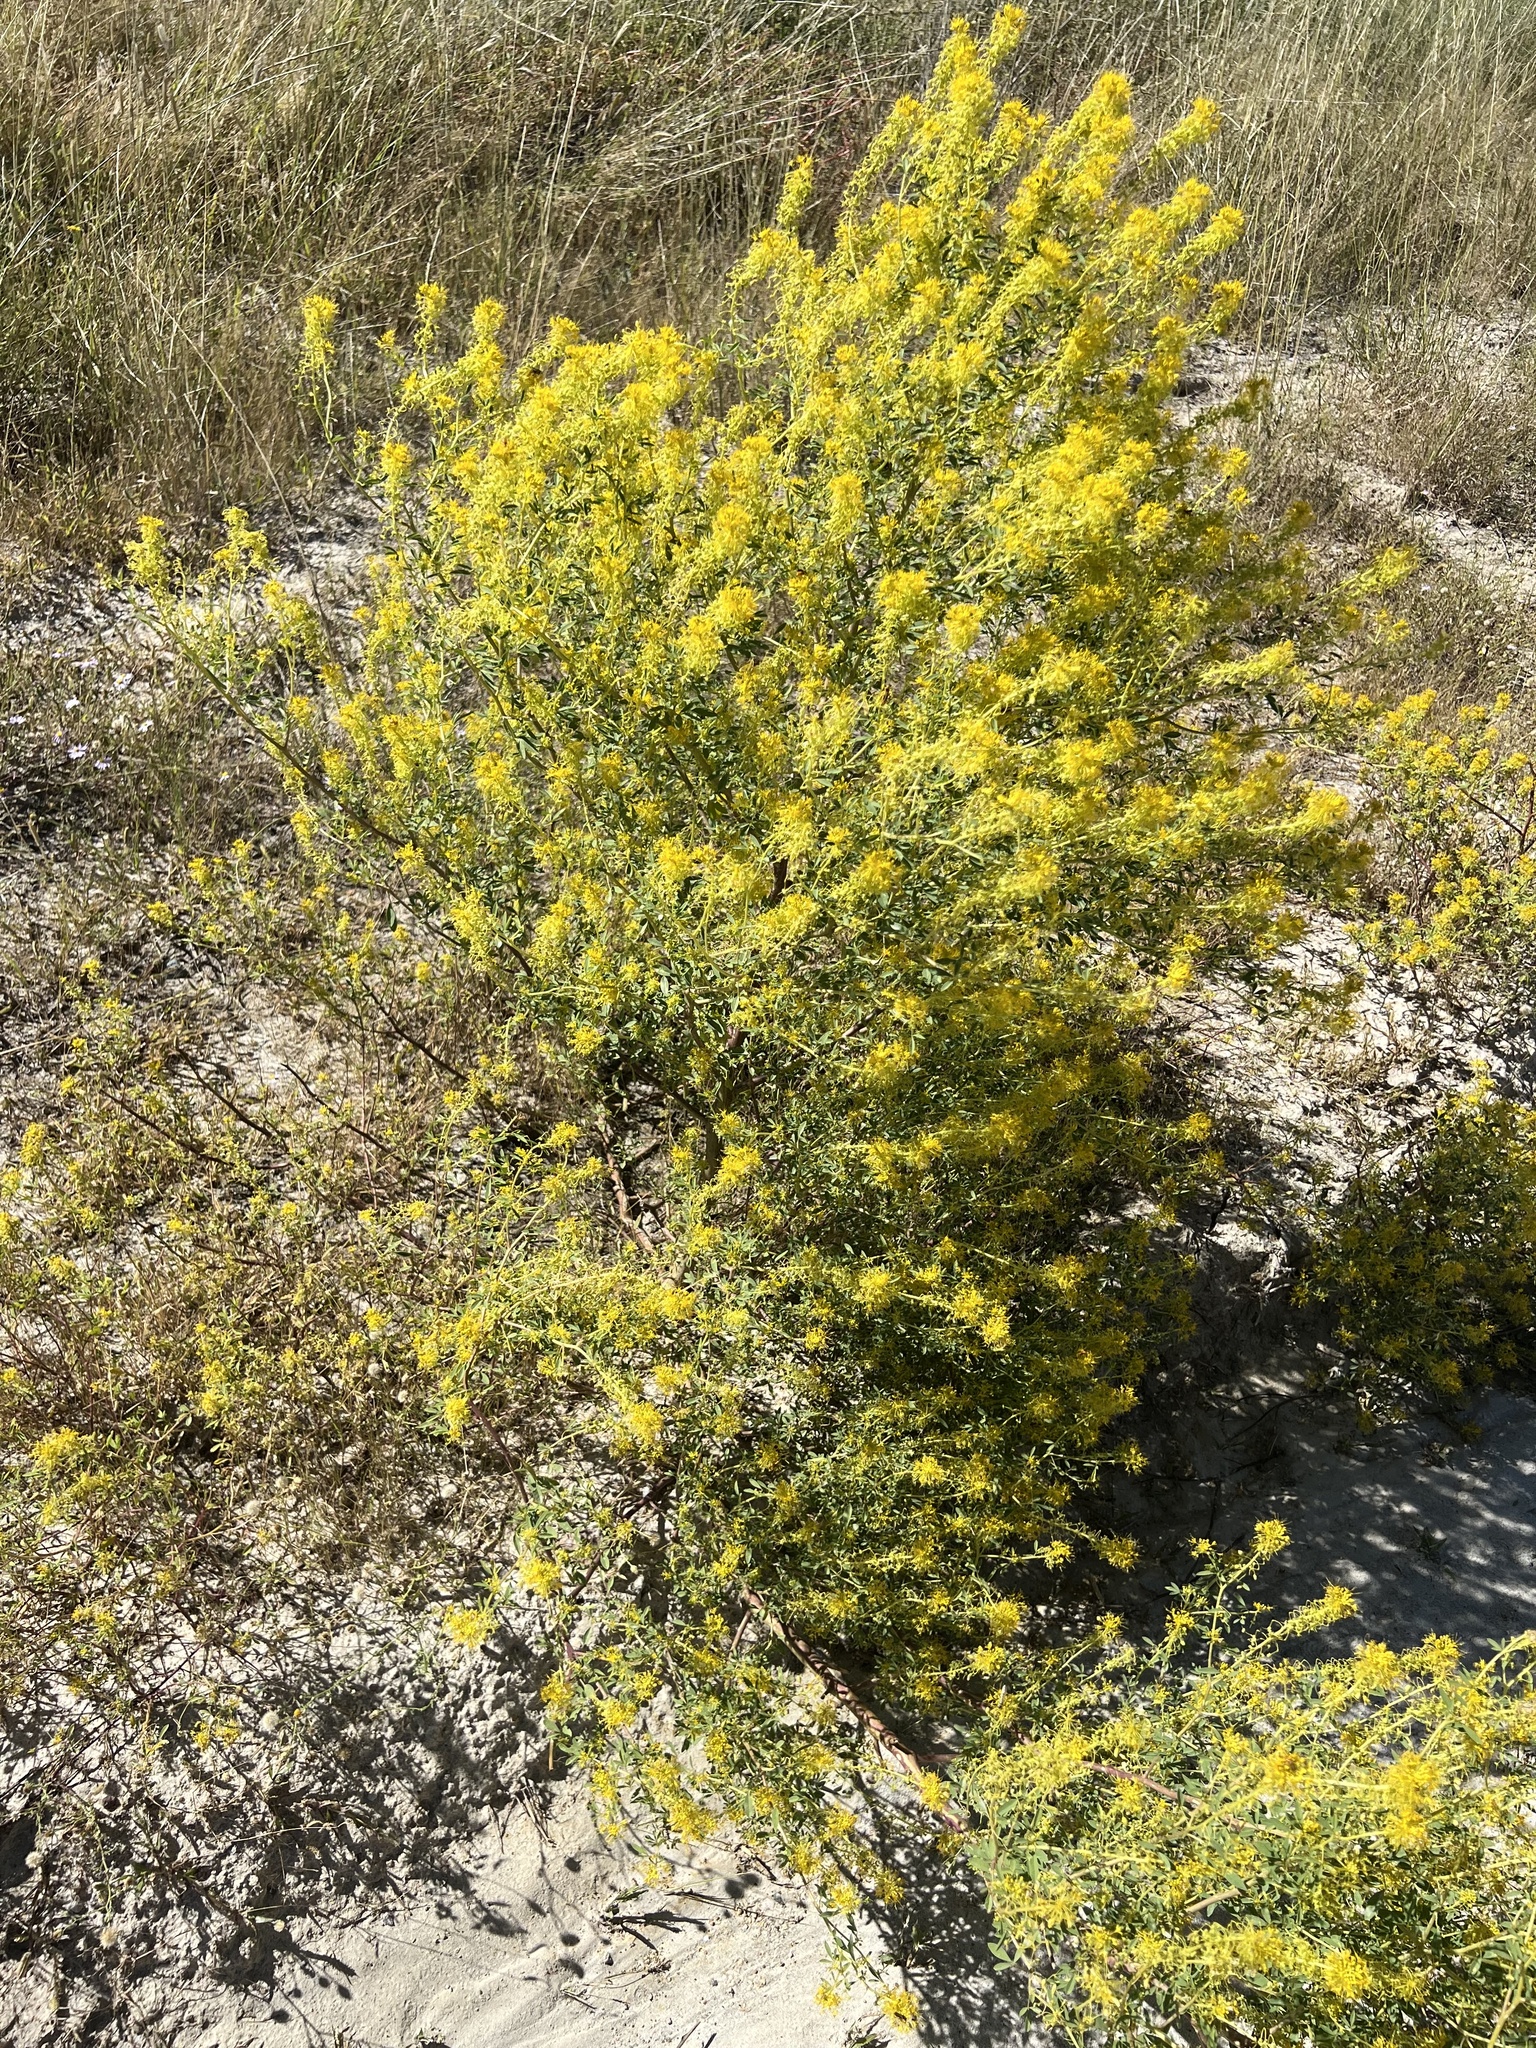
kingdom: Plantae
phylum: Tracheophyta
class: Magnoliopsida
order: Brassicales
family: Cleomaceae
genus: Cleomella
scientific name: Cleomella refracta
